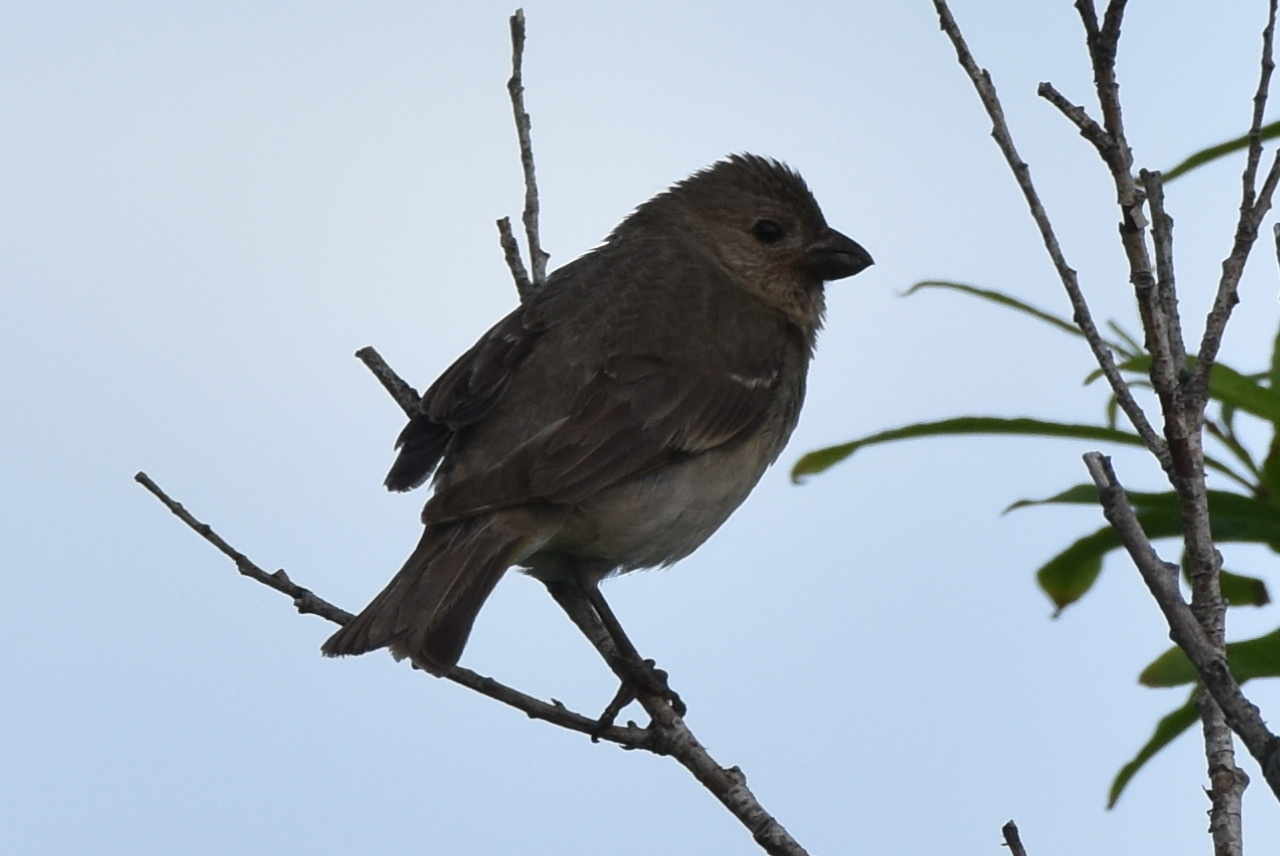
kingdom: Animalia
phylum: Chordata
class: Aves
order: Passeriformes
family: Fringillidae
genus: Carpodacus
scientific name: Carpodacus erythrinus
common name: Common rosefinch
